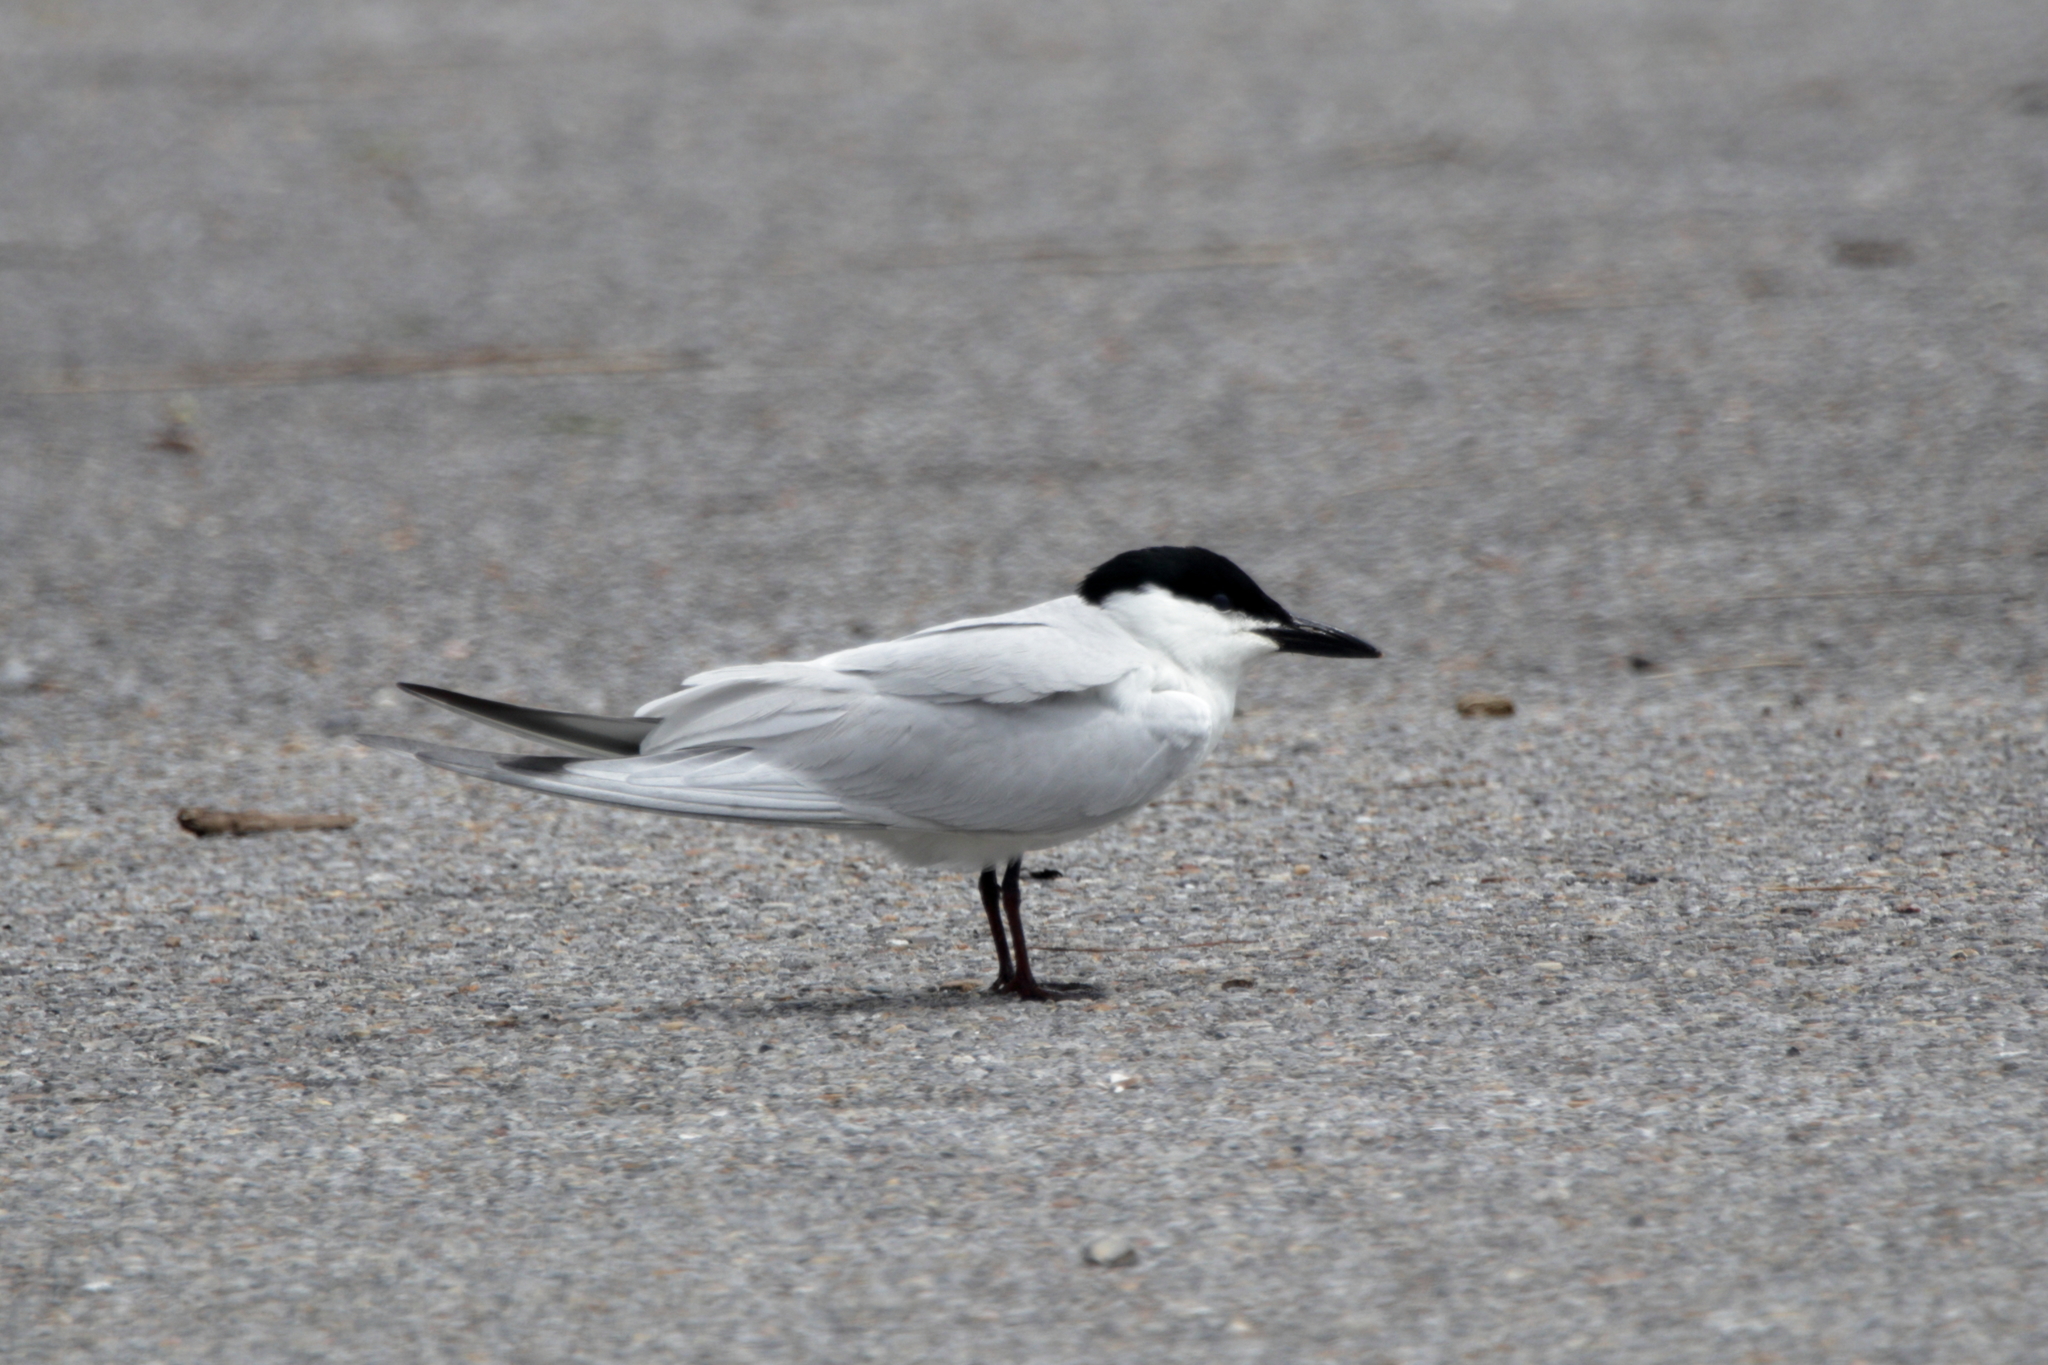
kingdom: Animalia
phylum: Chordata
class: Aves
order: Charadriiformes
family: Laridae
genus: Gelochelidon
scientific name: Gelochelidon nilotica
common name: Gull-billed tern
